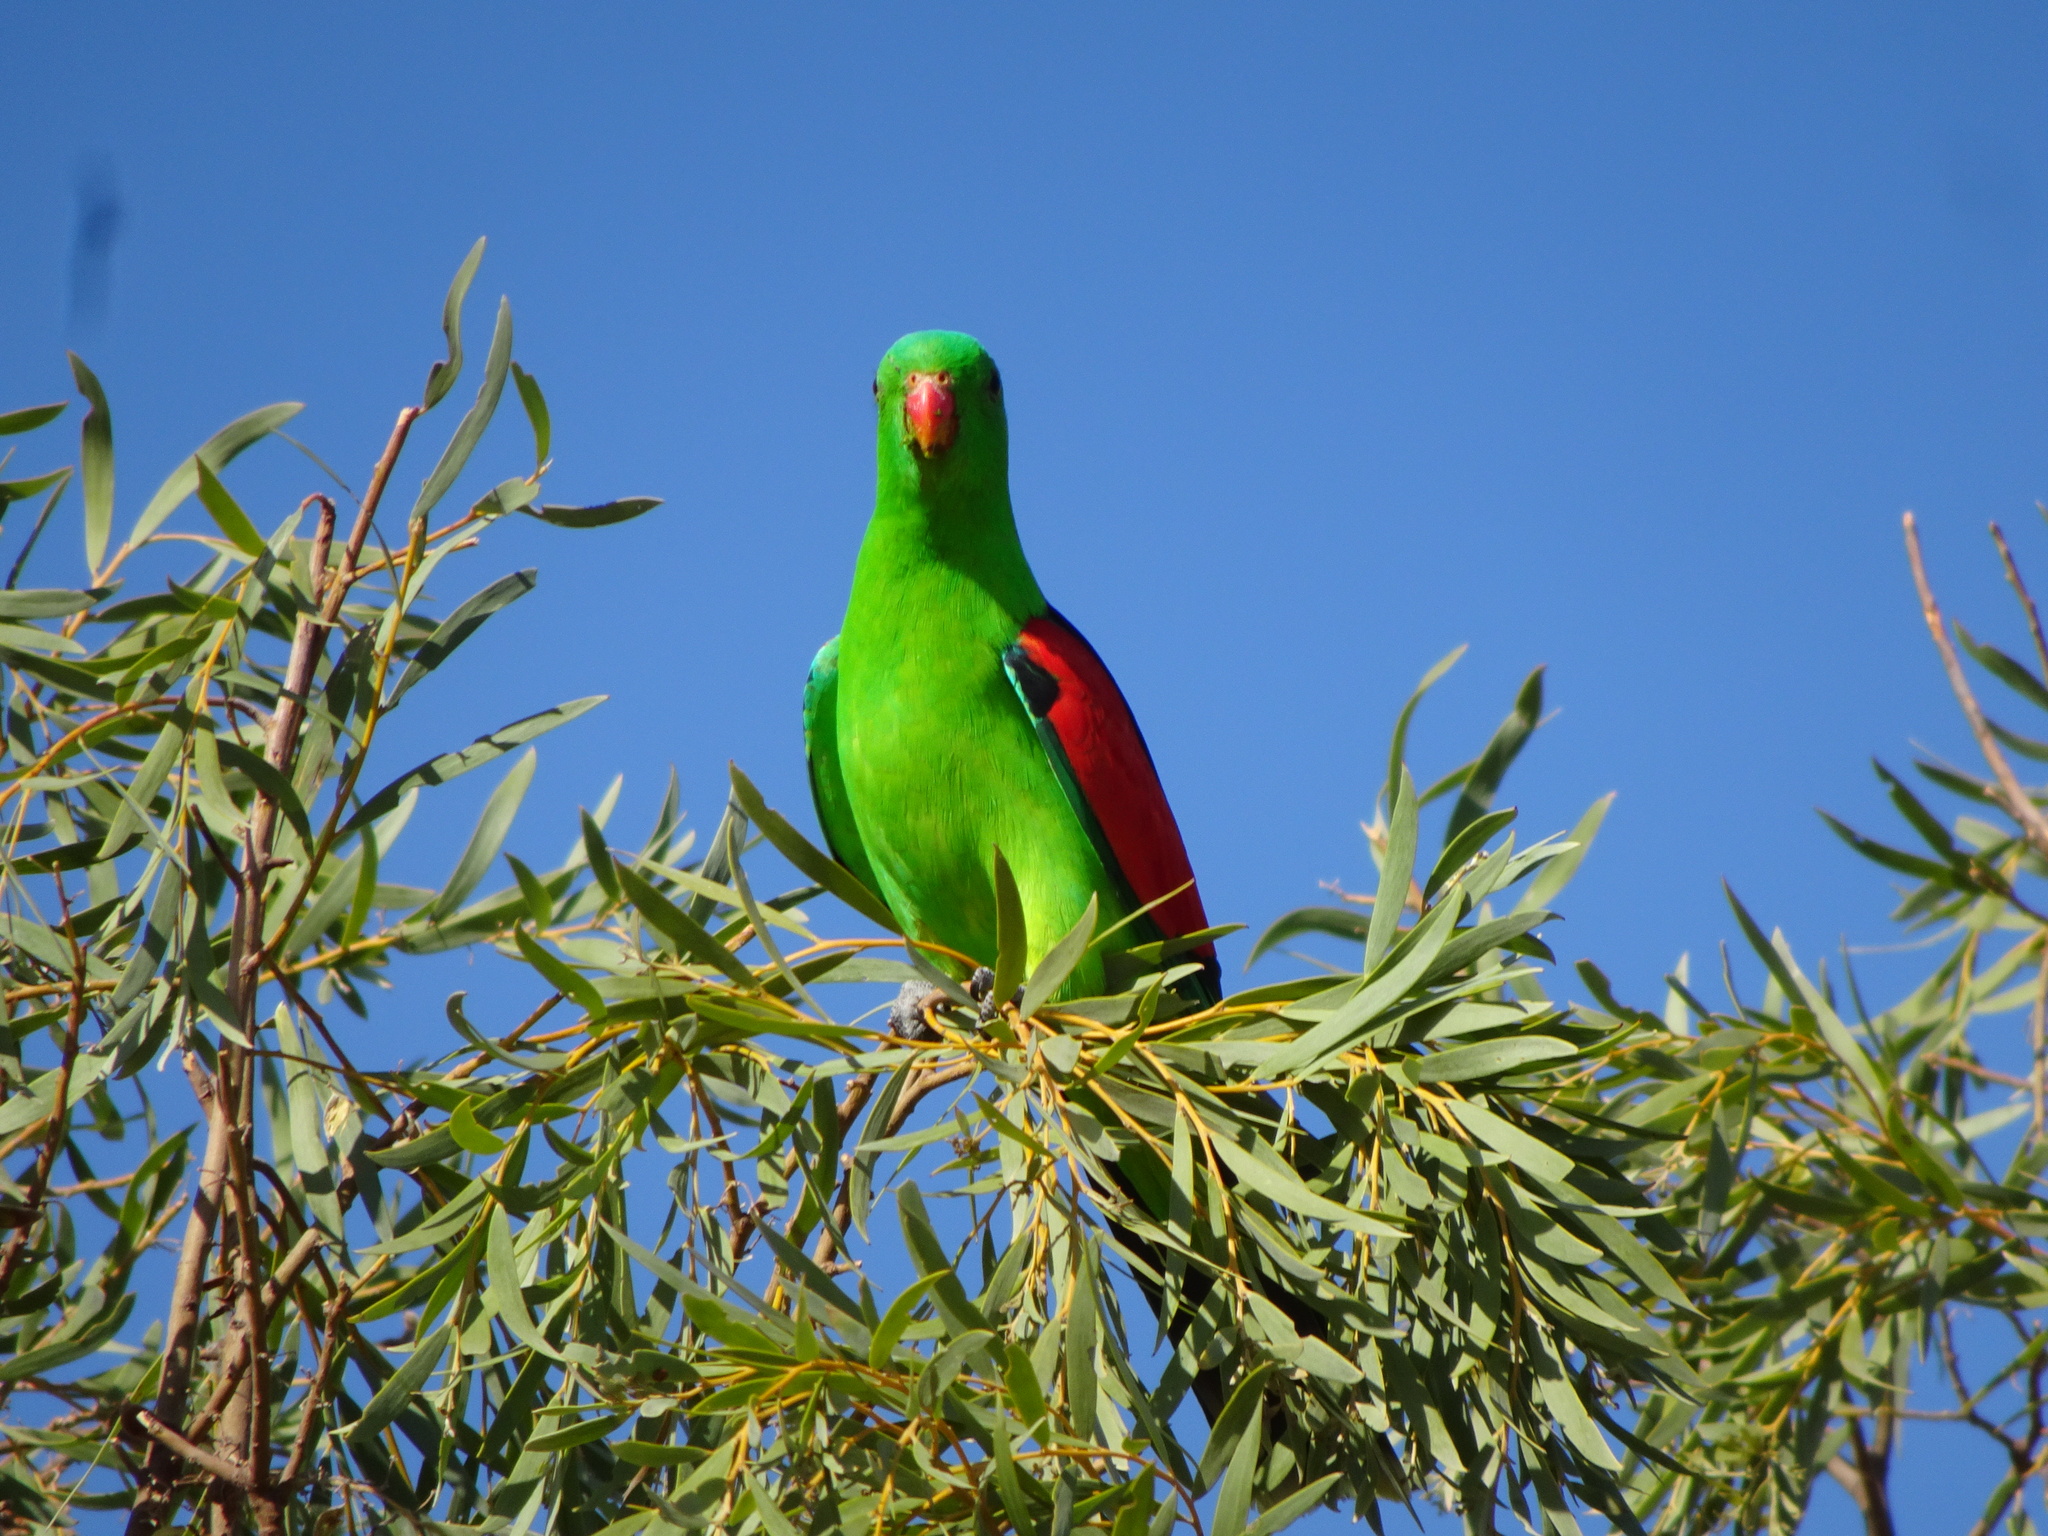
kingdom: Animalia
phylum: Chordata
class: Aves
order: Psittaciformes
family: Psittacidae
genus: Aprosmictus
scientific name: Aprosmictus erythropterus
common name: Red-winged parrot
